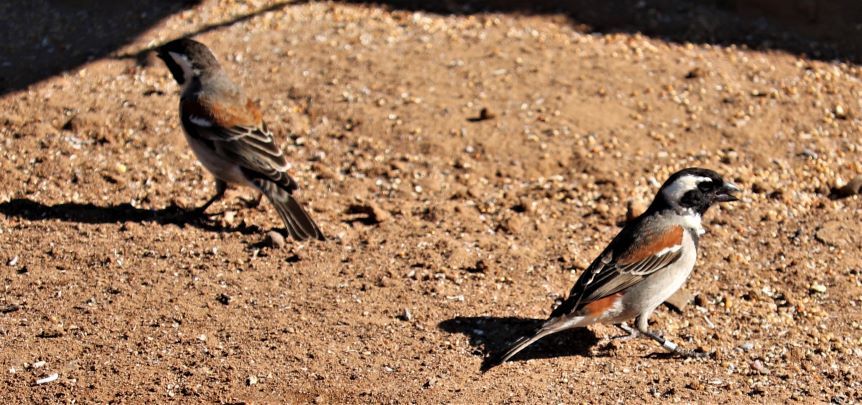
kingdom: Animalia
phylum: Chordata
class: Aves
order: Passeriformes
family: Passeridae
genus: Passer
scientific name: Passer melanurus
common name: Cape sparrow
